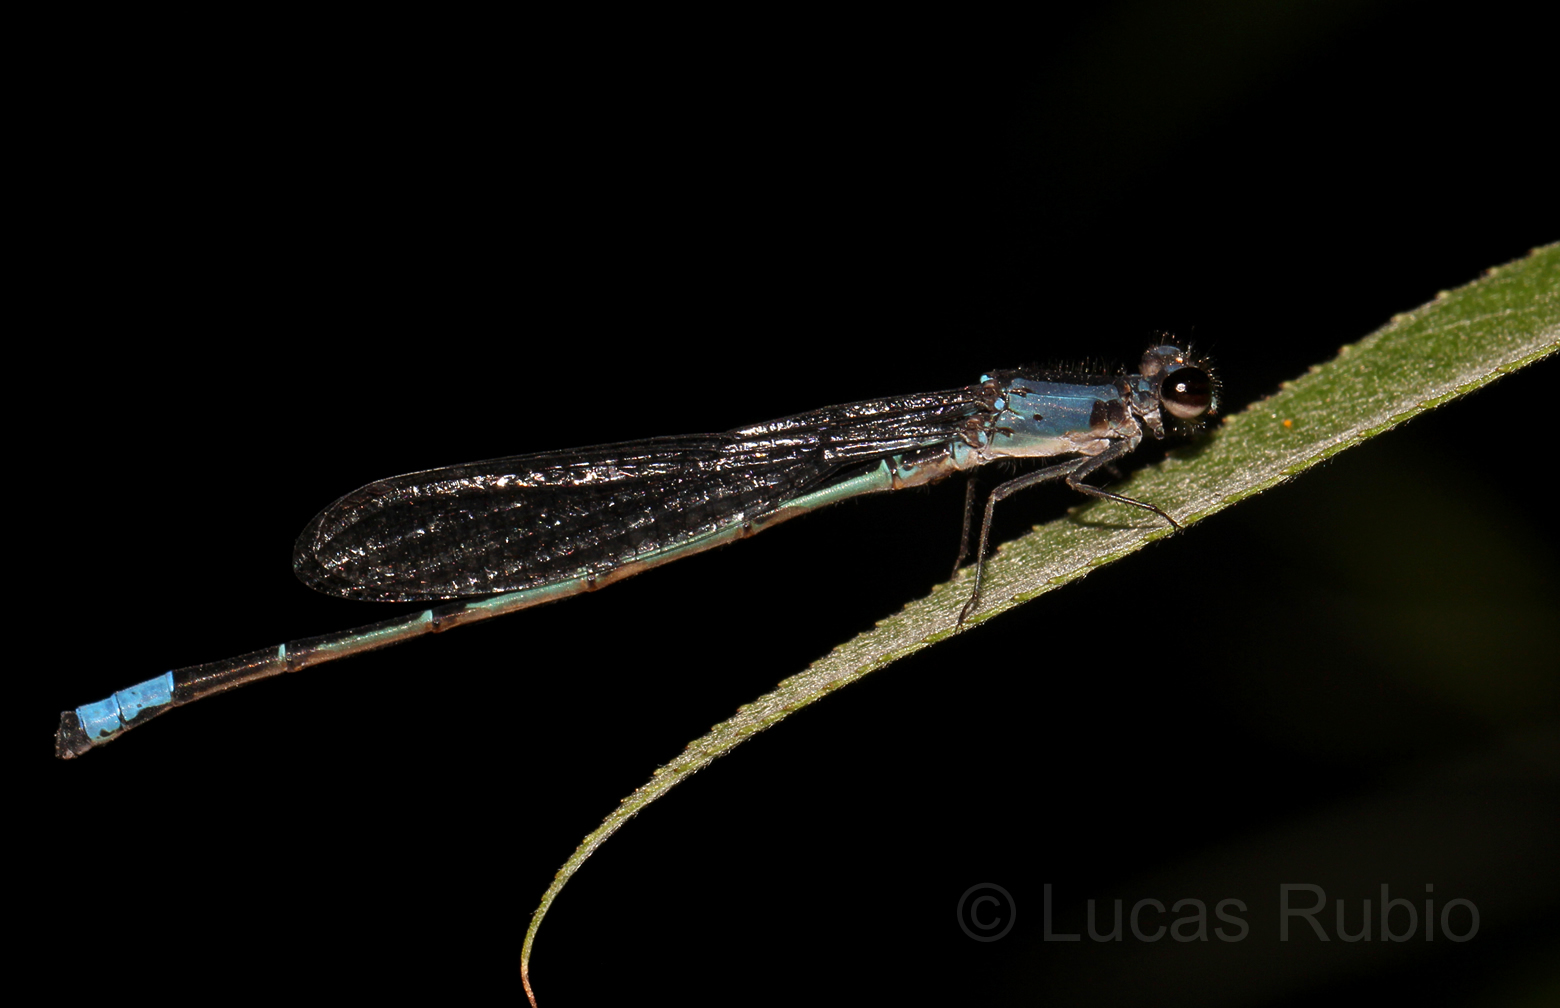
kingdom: Animalia
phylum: Arthropoda
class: Insecta
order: Odonata
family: Coenagrionidae
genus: Oxyagrion
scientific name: Oxyagrion ablutum
